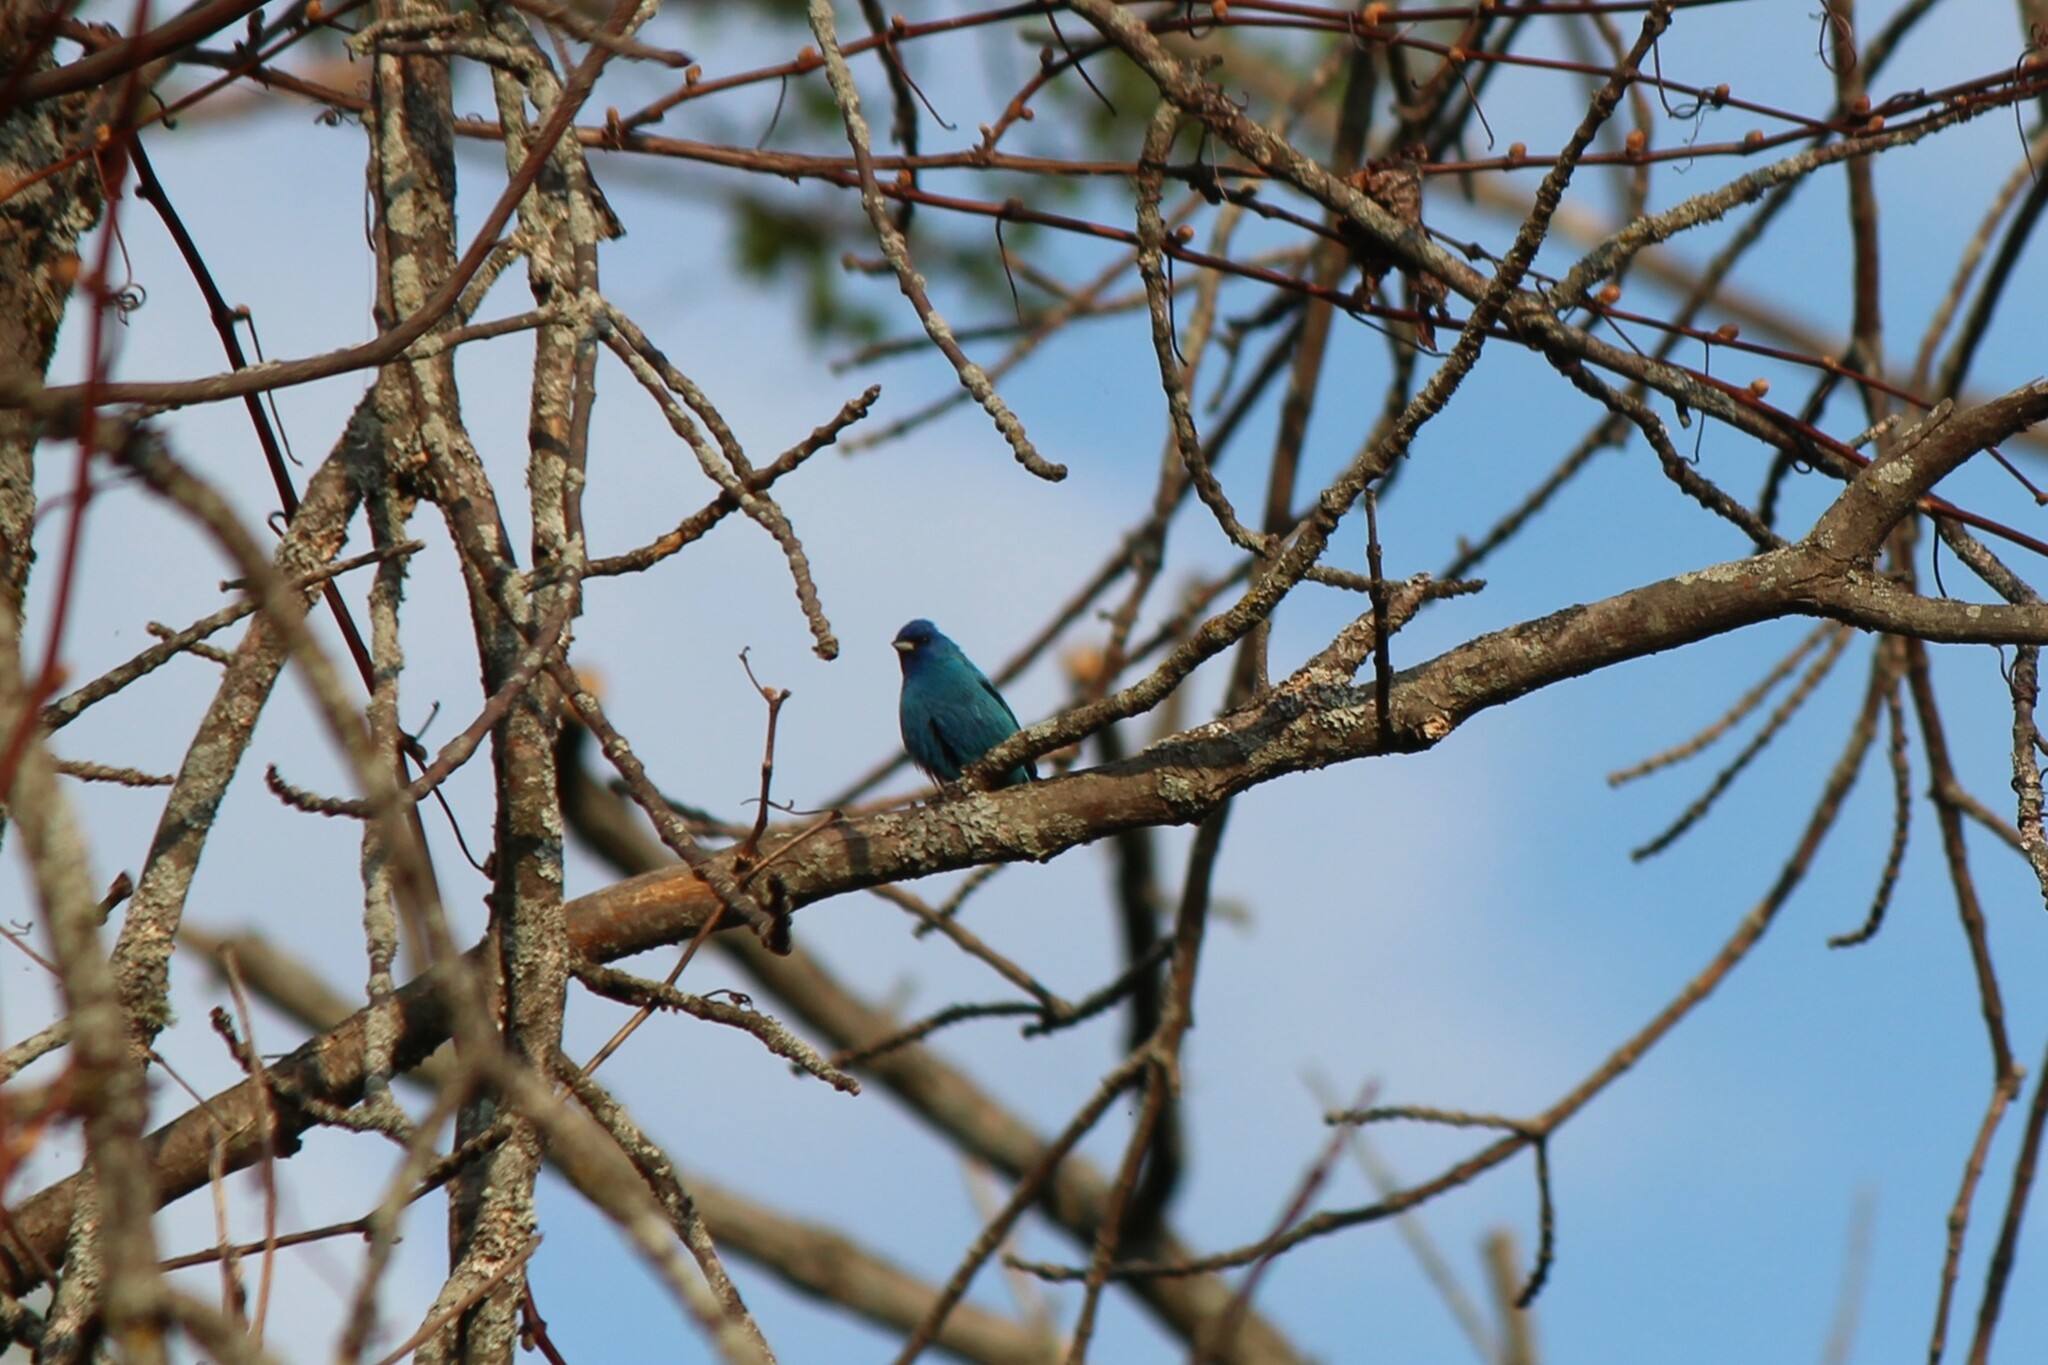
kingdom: Animalia
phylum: Chordata
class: Aves
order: Passeriformes
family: Cardinalidae
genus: Passerina
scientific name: Passerina cyanea
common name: Indigo bunting
